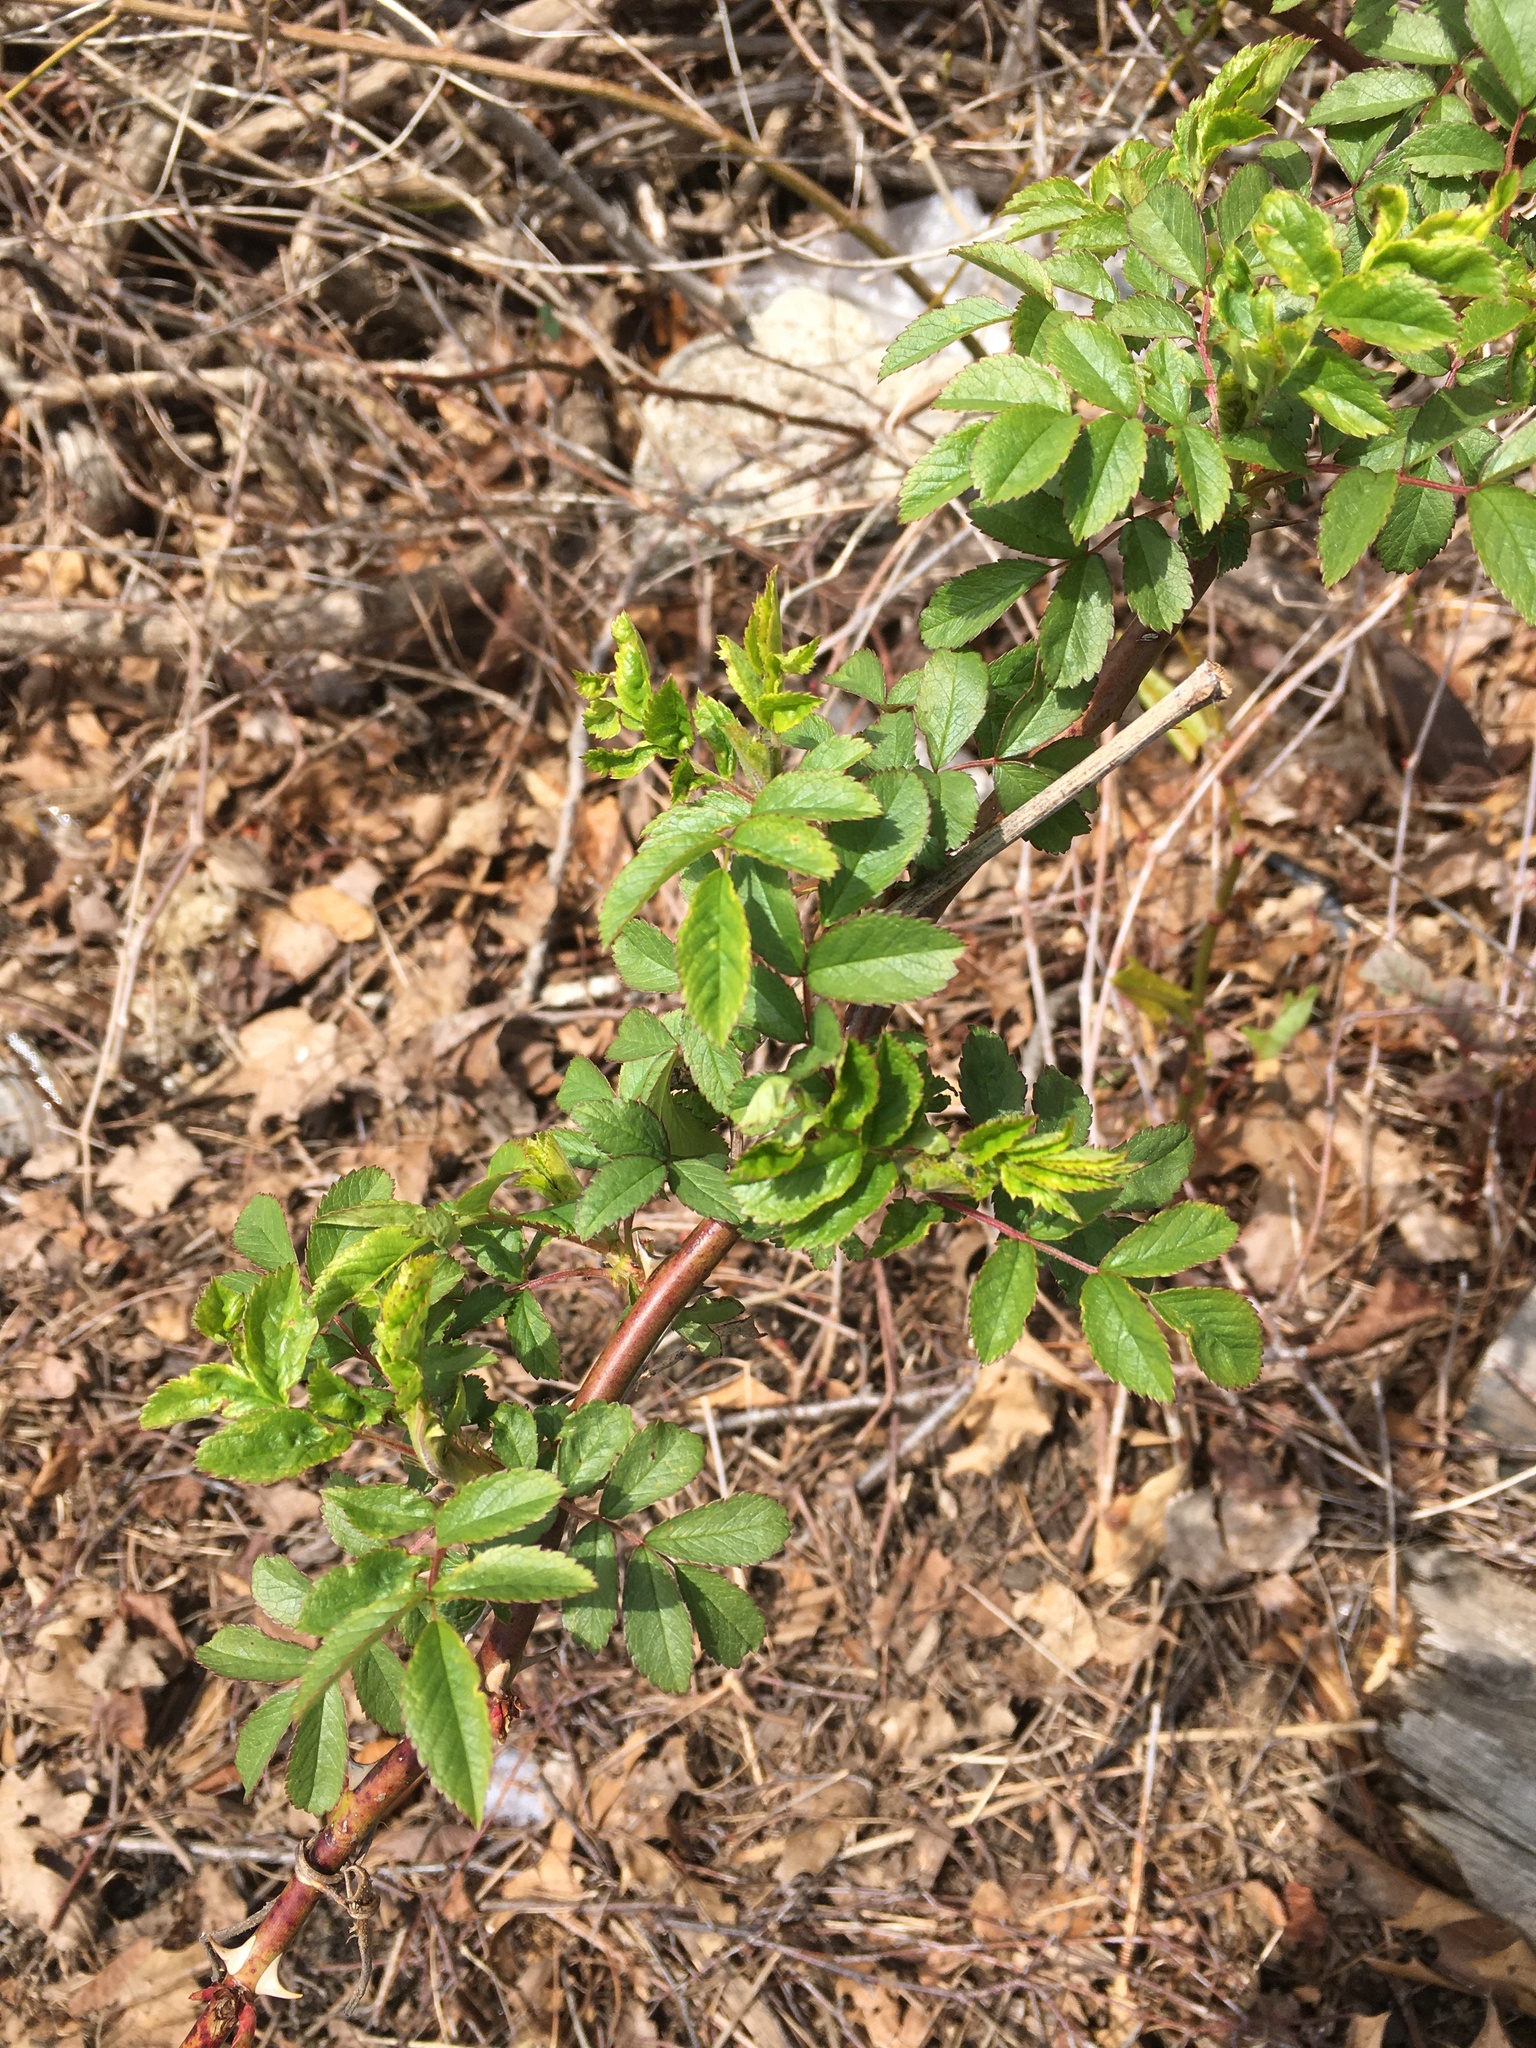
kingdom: Plantae
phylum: Tracheophyta
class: Magnoliopsida
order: Rosales
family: Rosaceae
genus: Rosa
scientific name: Rosa multiflora
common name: Multiflora rose
